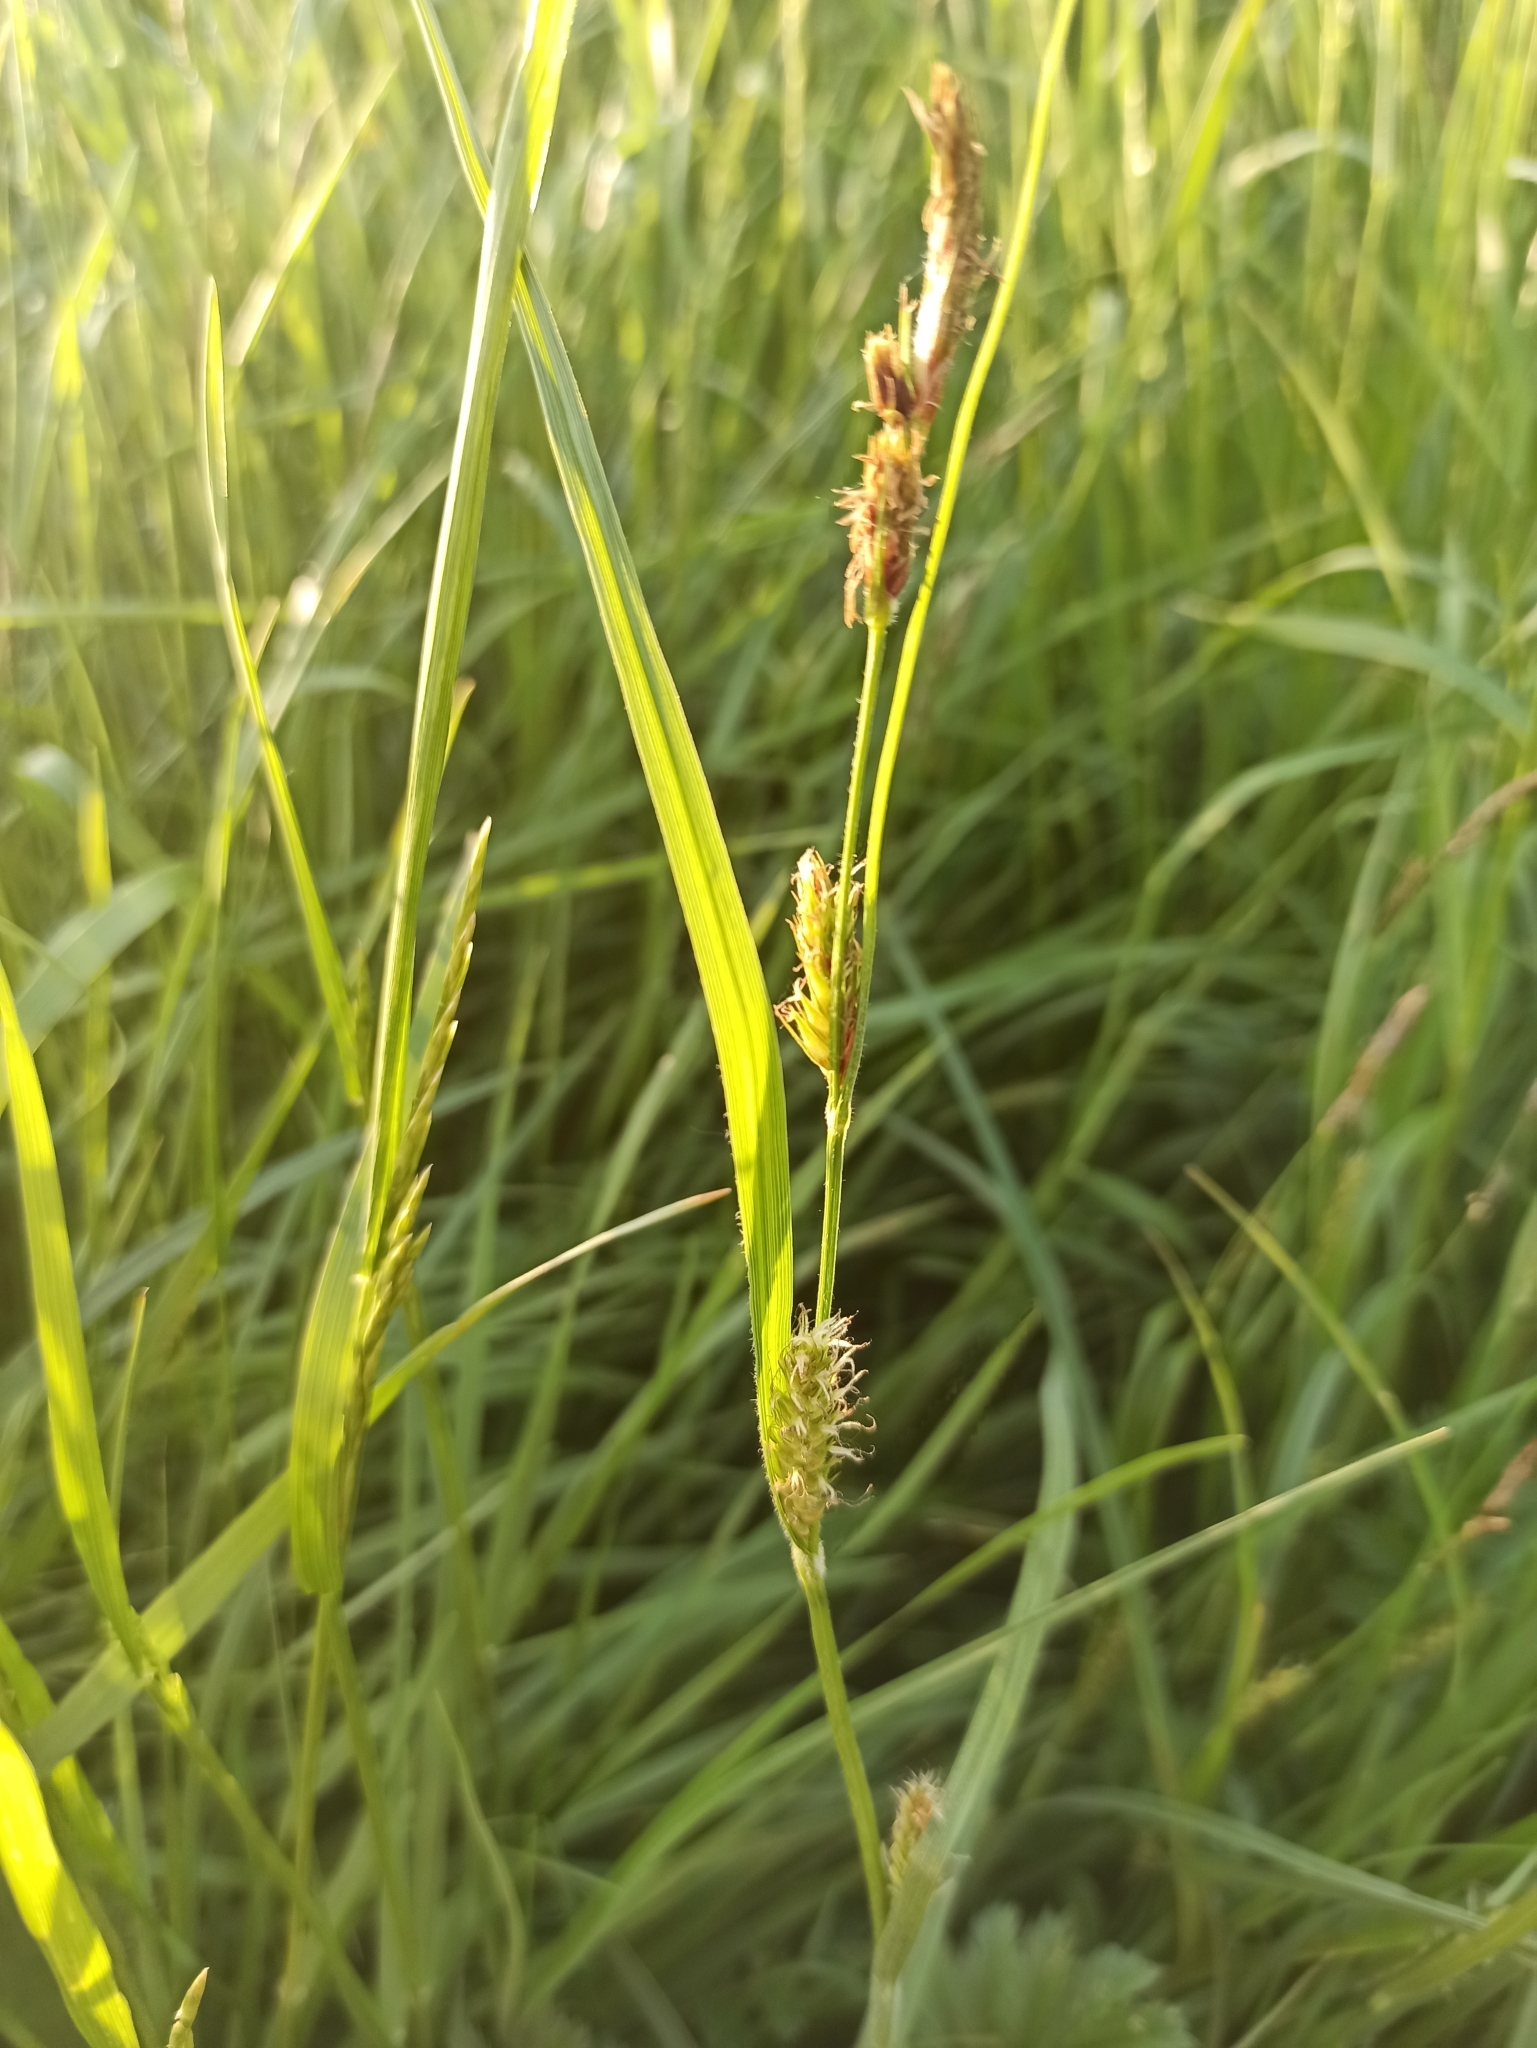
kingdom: Plantae
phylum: Tracheophyta
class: Liliopsida
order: Poales
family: Cyperaceae
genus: Carex
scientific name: Carex hirta
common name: Hairy sedge
